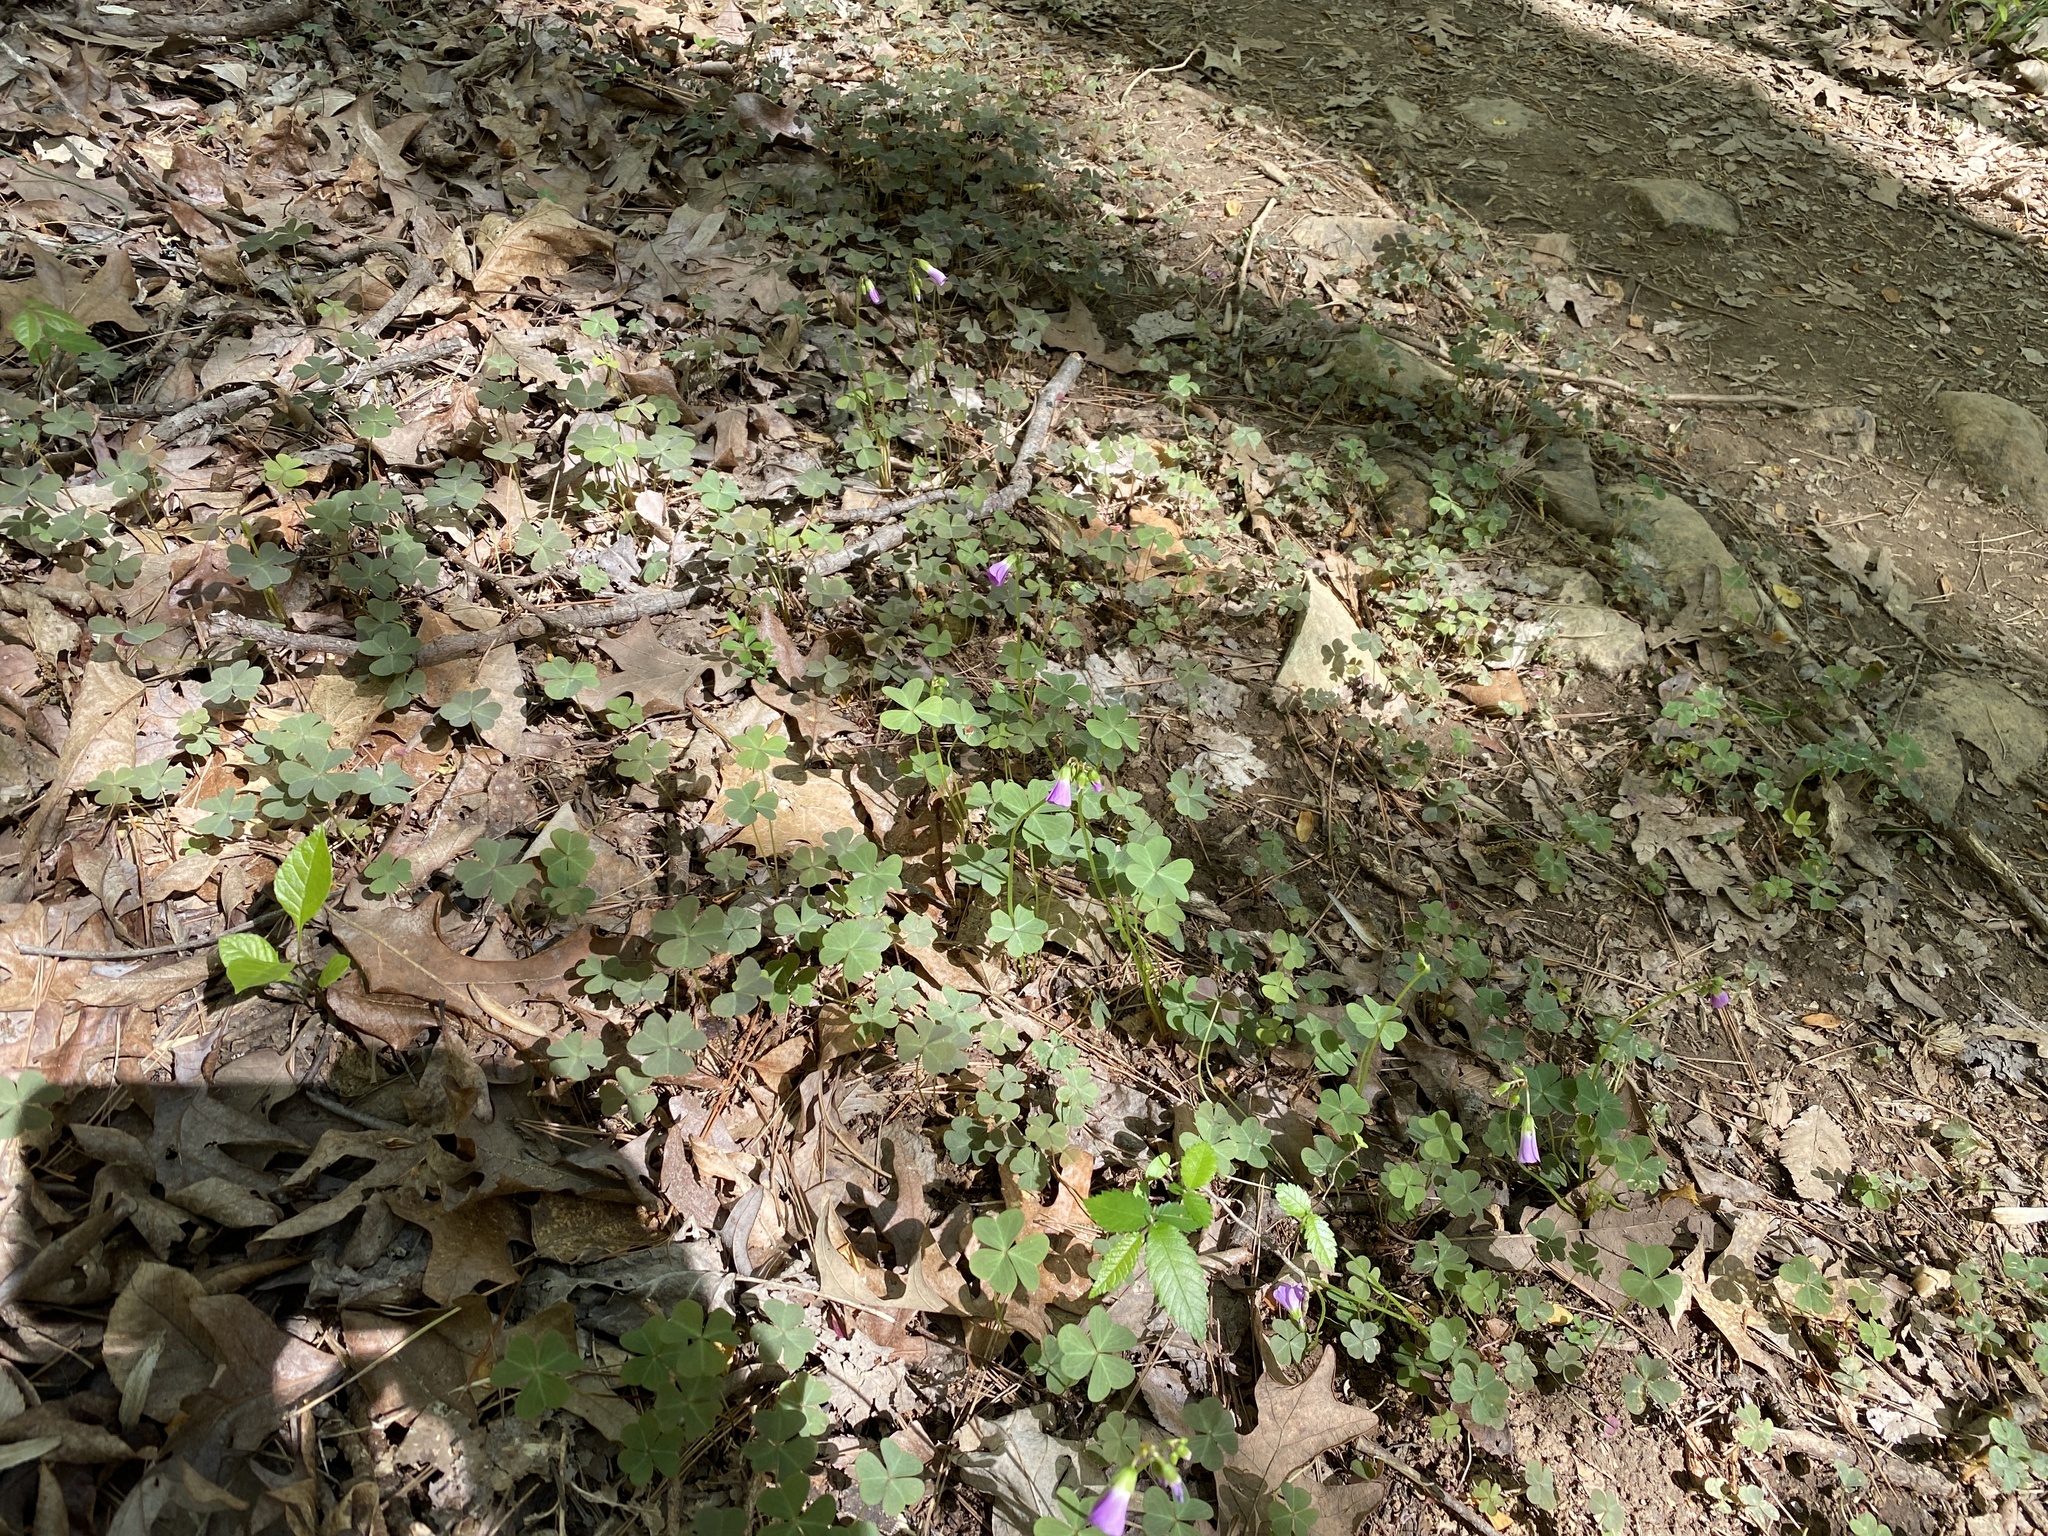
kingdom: Plantae
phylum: Tracheophyta
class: Magnoliopsida
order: Oxalidales
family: Oxalidaceae
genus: Oxalis
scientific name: Oxalis violacea
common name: Violet wood-sorrel
